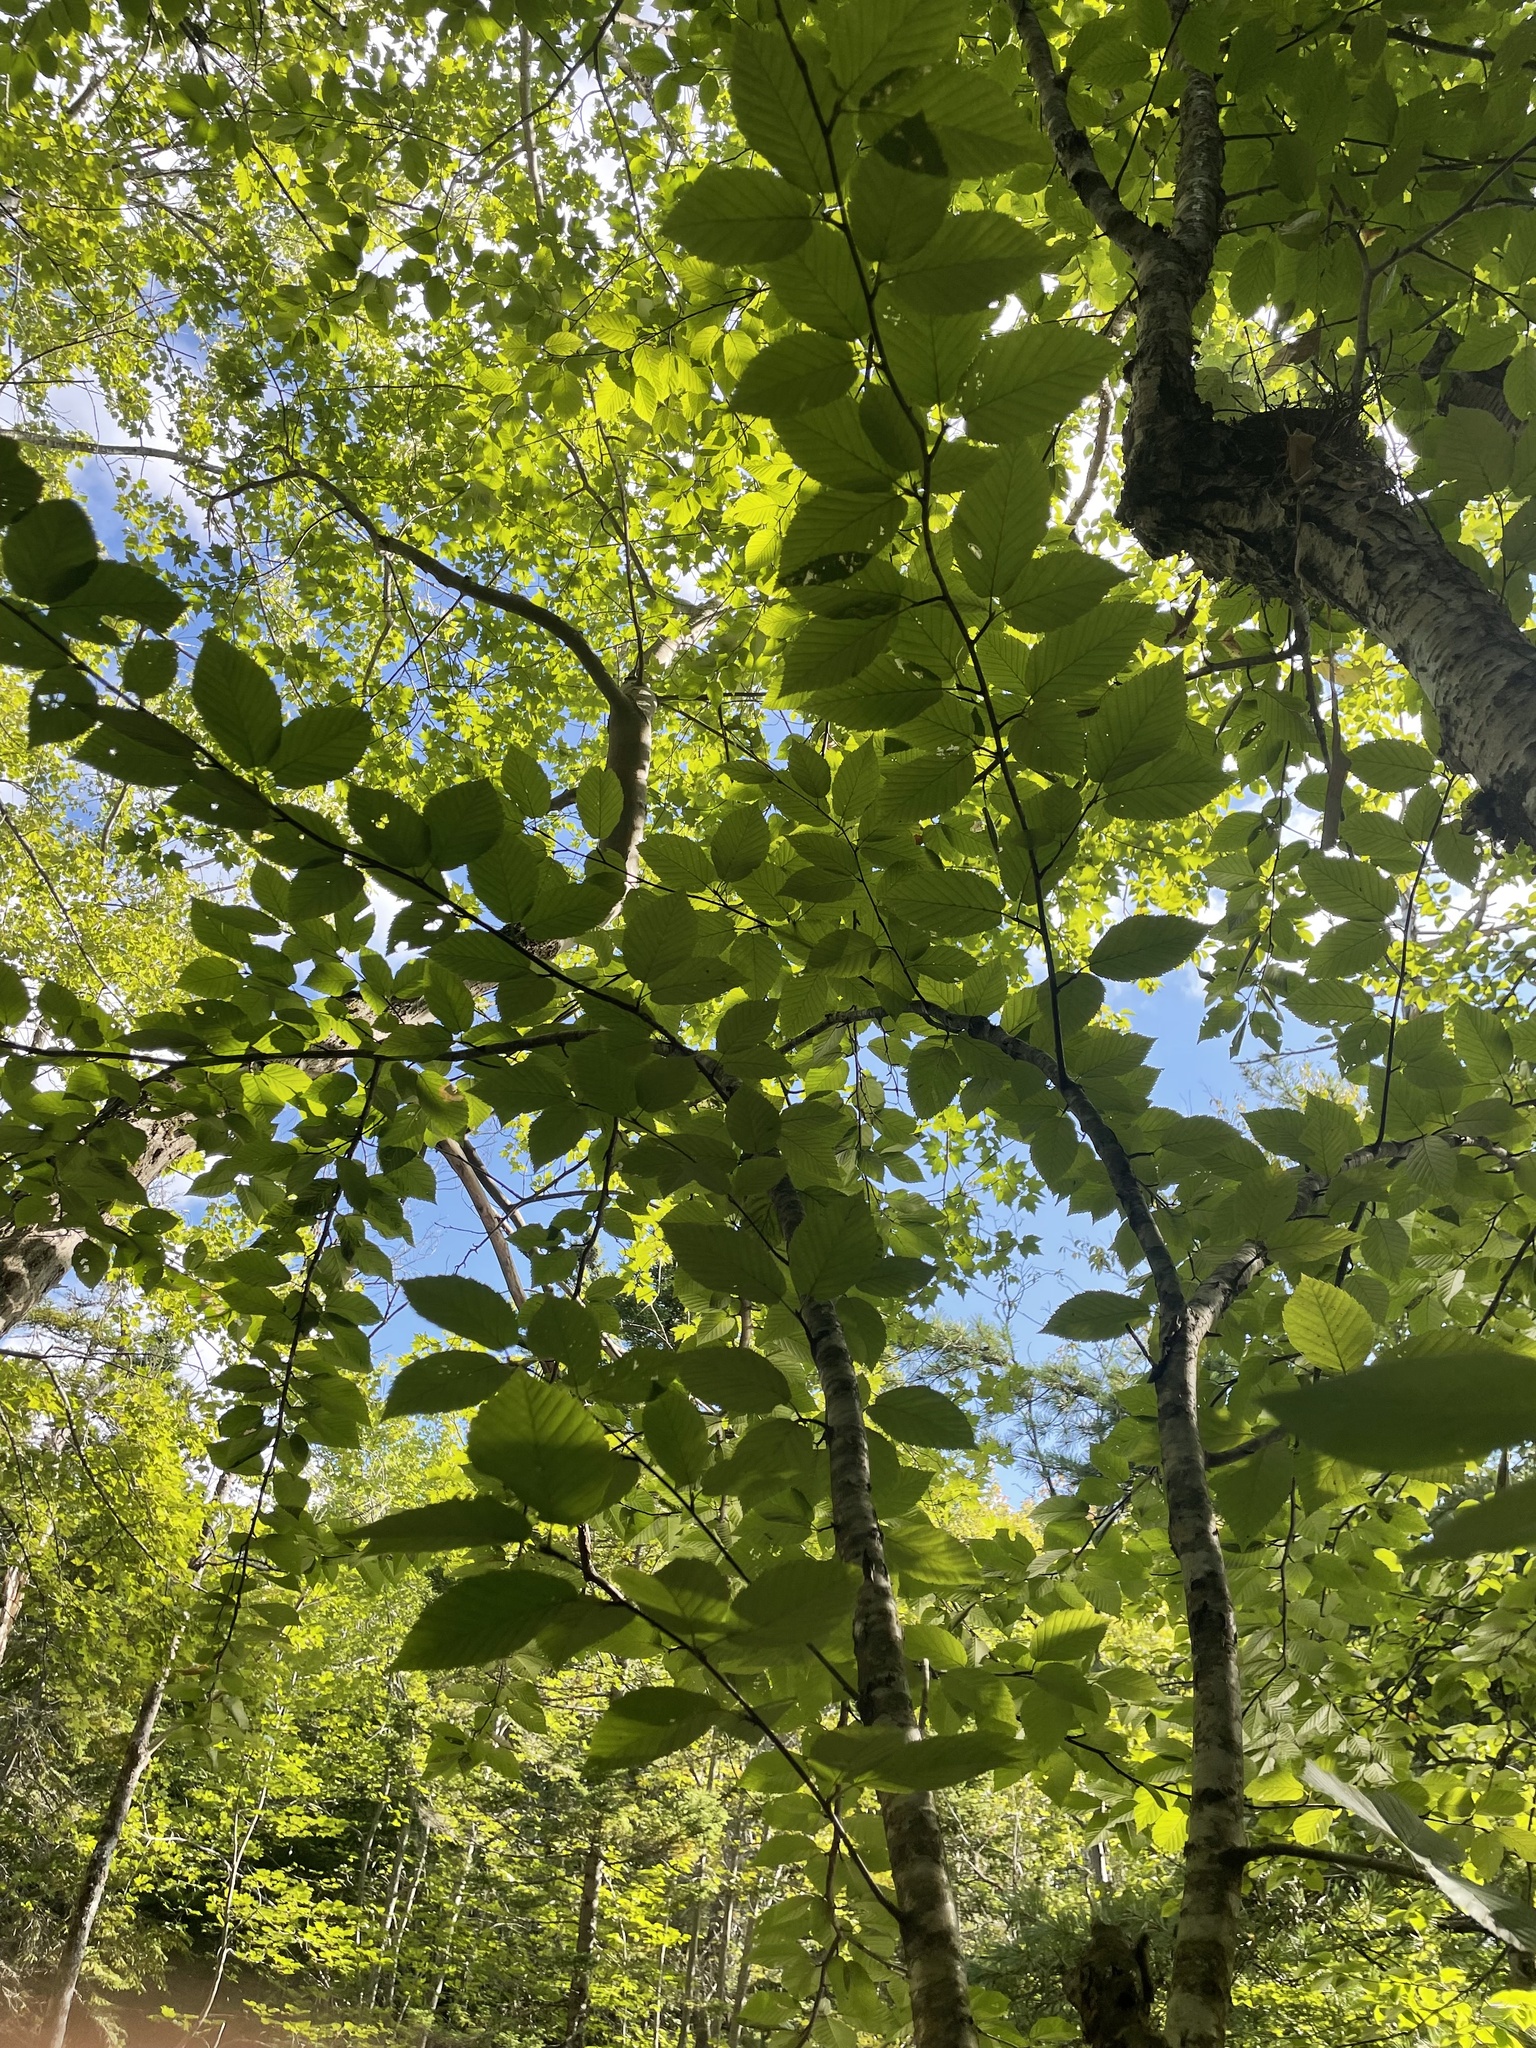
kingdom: Plantae
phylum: Tracheophyta
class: Magnoliopsida
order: Fagales
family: Fagaceae
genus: Fagus
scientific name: Fagus grandifolia
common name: American beech
